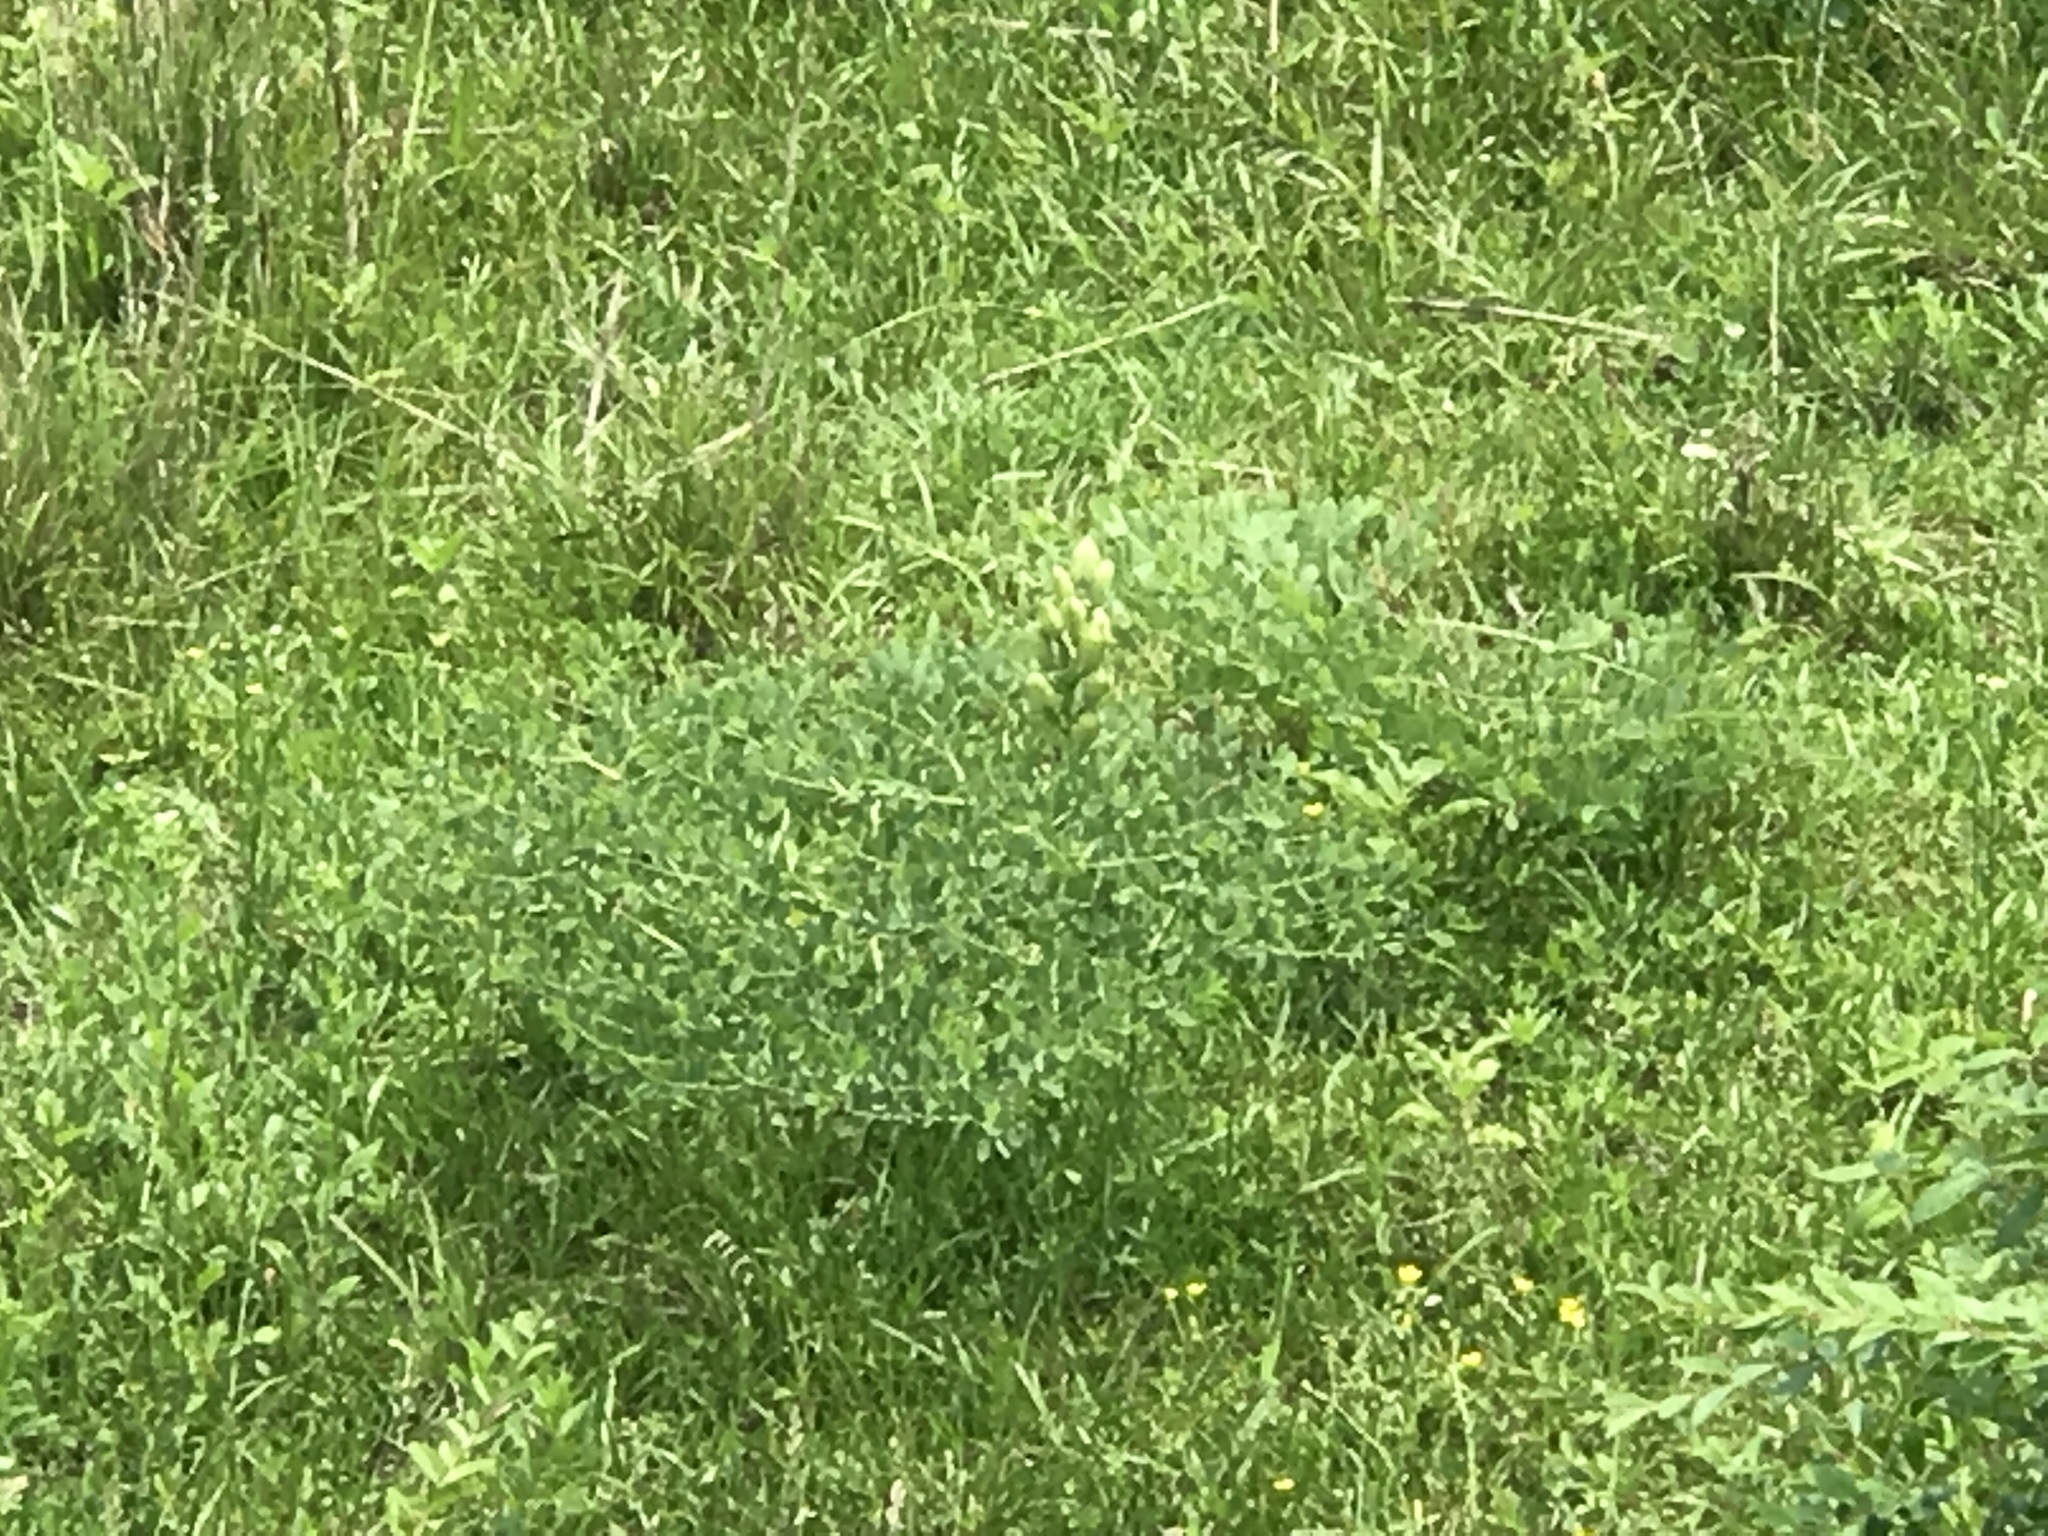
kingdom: Plantae
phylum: Tracheophyta
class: Magnoliopsida
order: Fabales
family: Fabaceae
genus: Baptisia
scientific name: Baptisia aberrans
